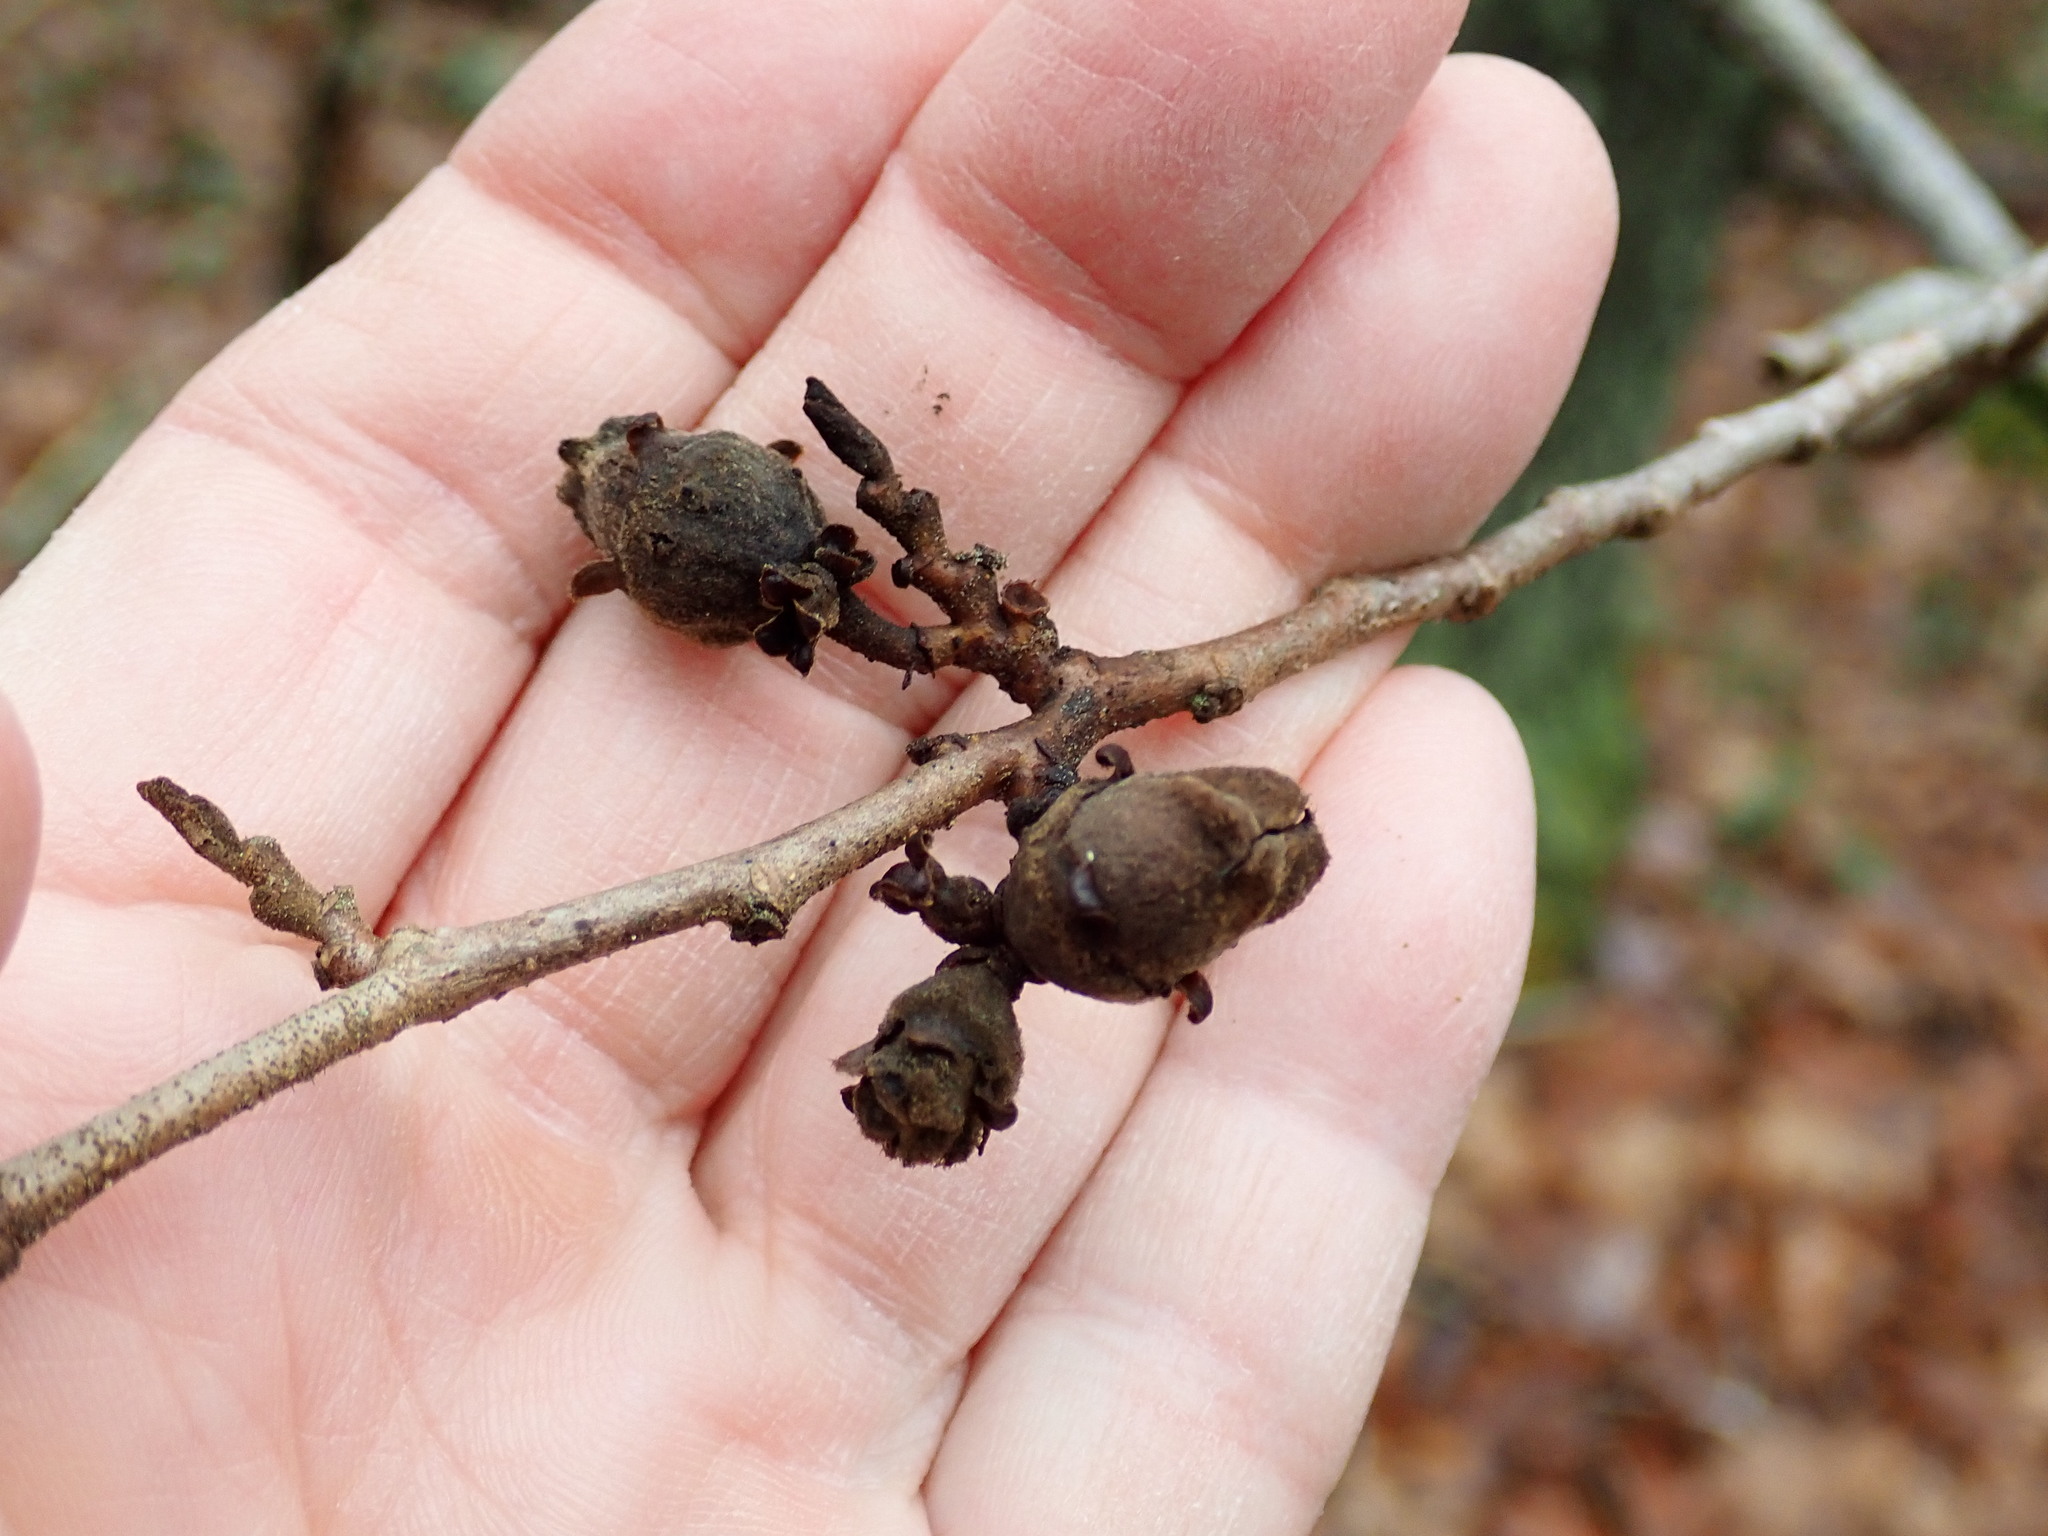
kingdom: Plantae
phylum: Tracheophyta
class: Magnoliopsida
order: Saxifragales
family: Hamamelidaceae
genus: Hamamelis
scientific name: Hamamelis virginiana
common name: Witch-hazel
